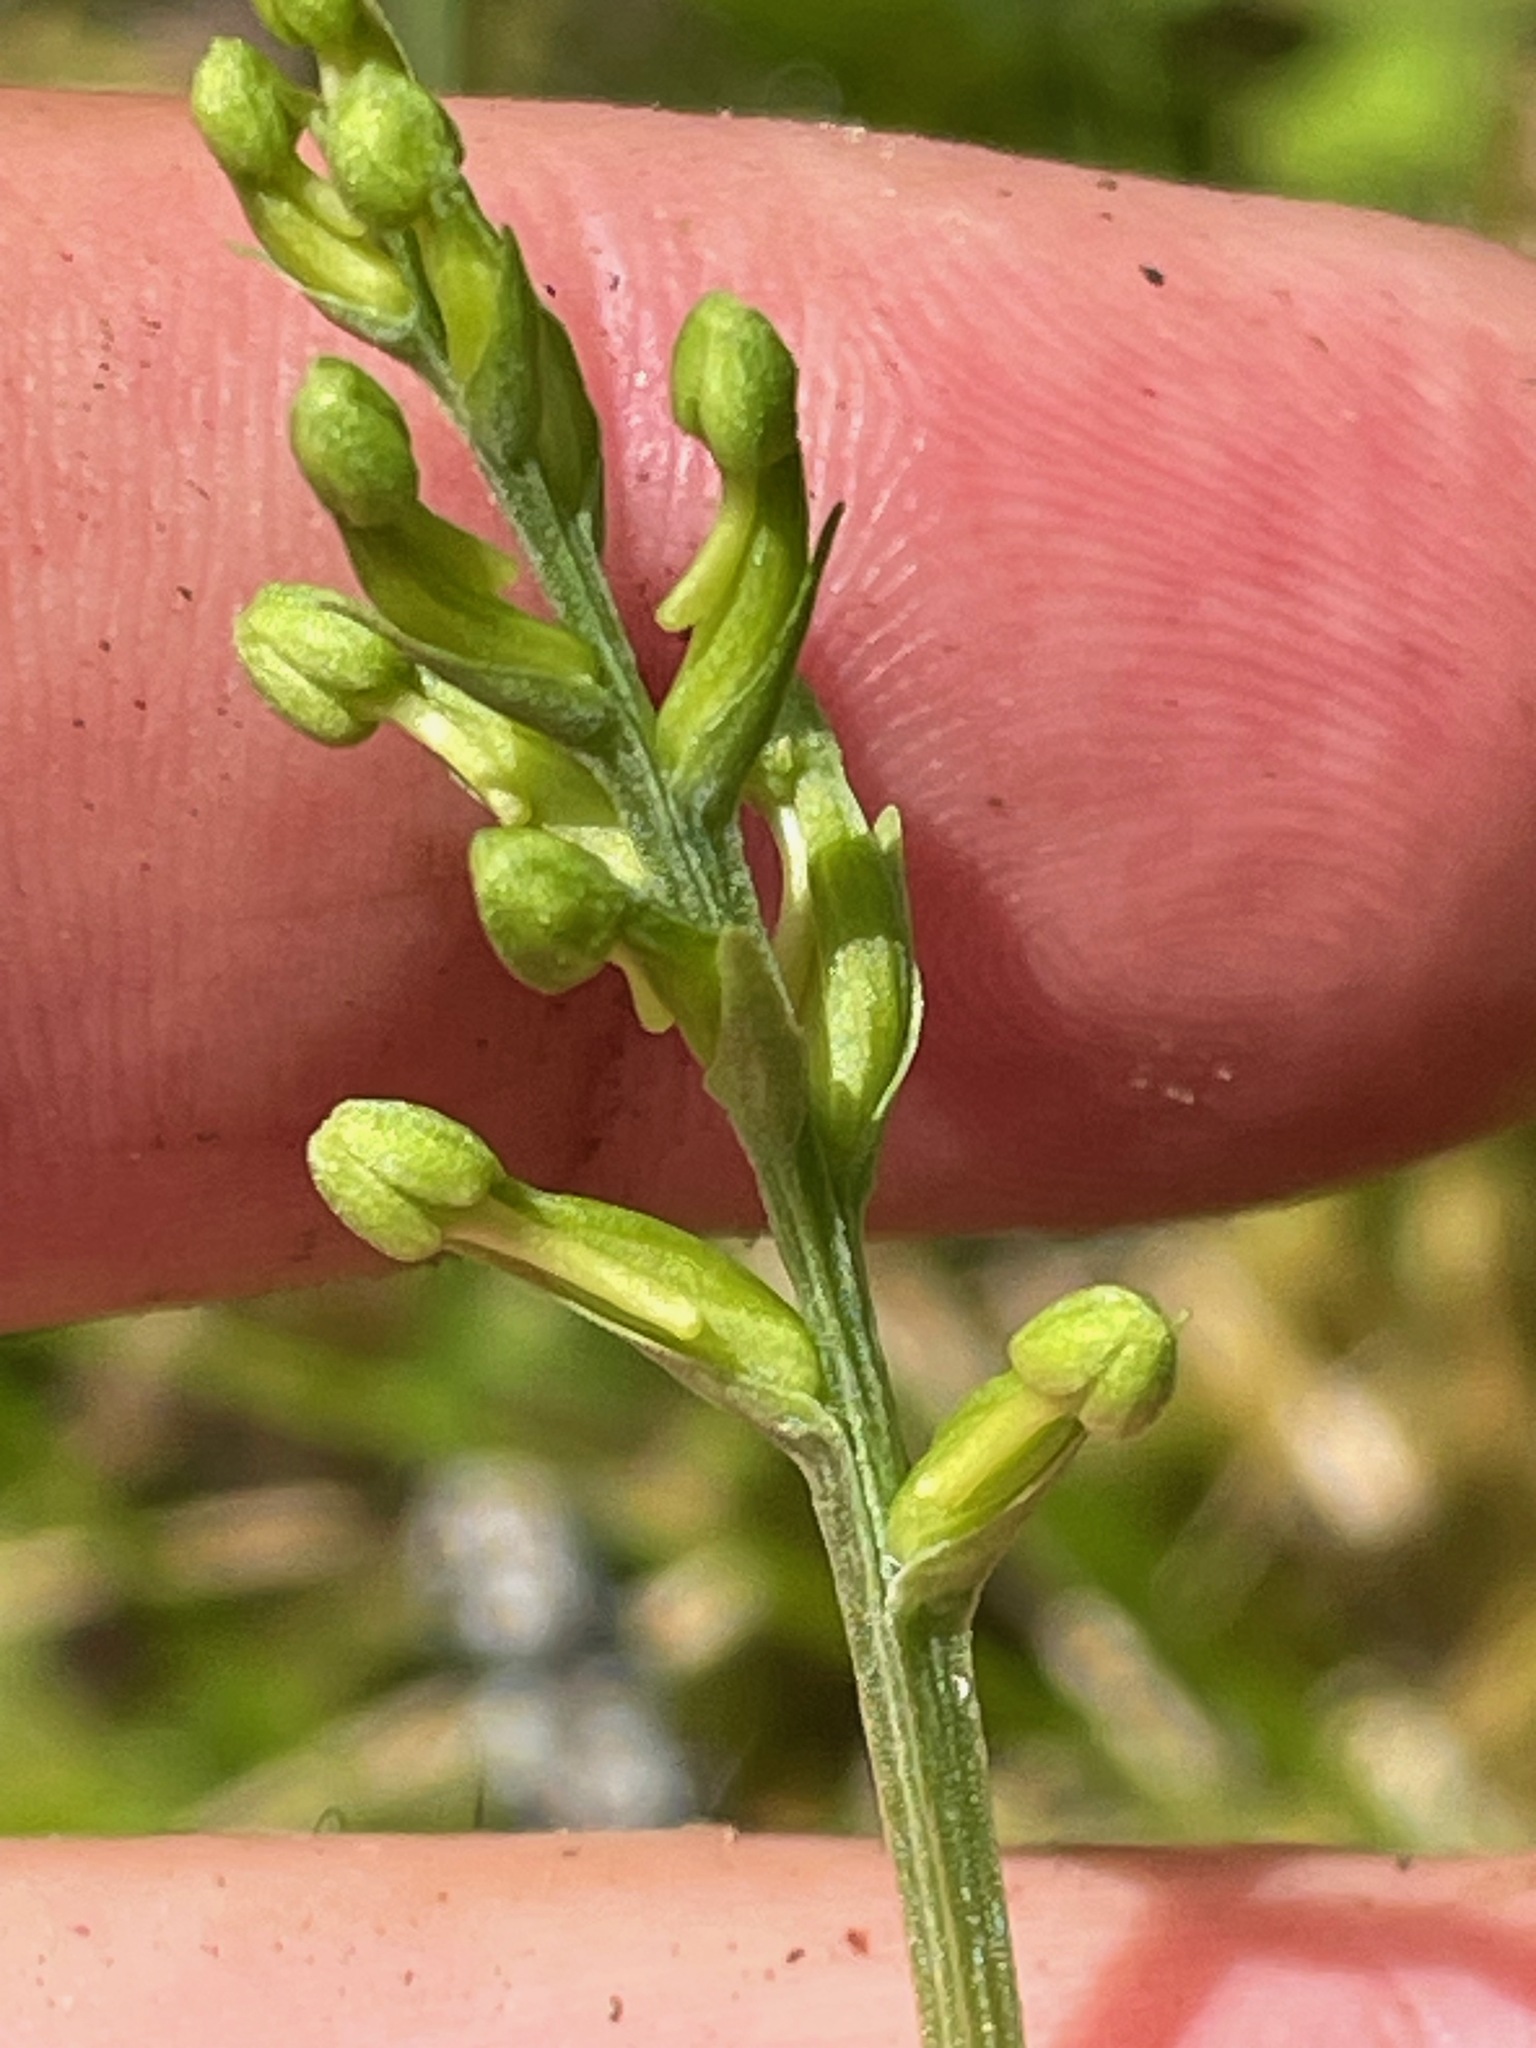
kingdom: Plantae
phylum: Tracheophyta
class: Liliopsida
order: Asparagales
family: Orchidaceae
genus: Platanthera
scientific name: Platanthera clavellata
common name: Club-spur orchid
